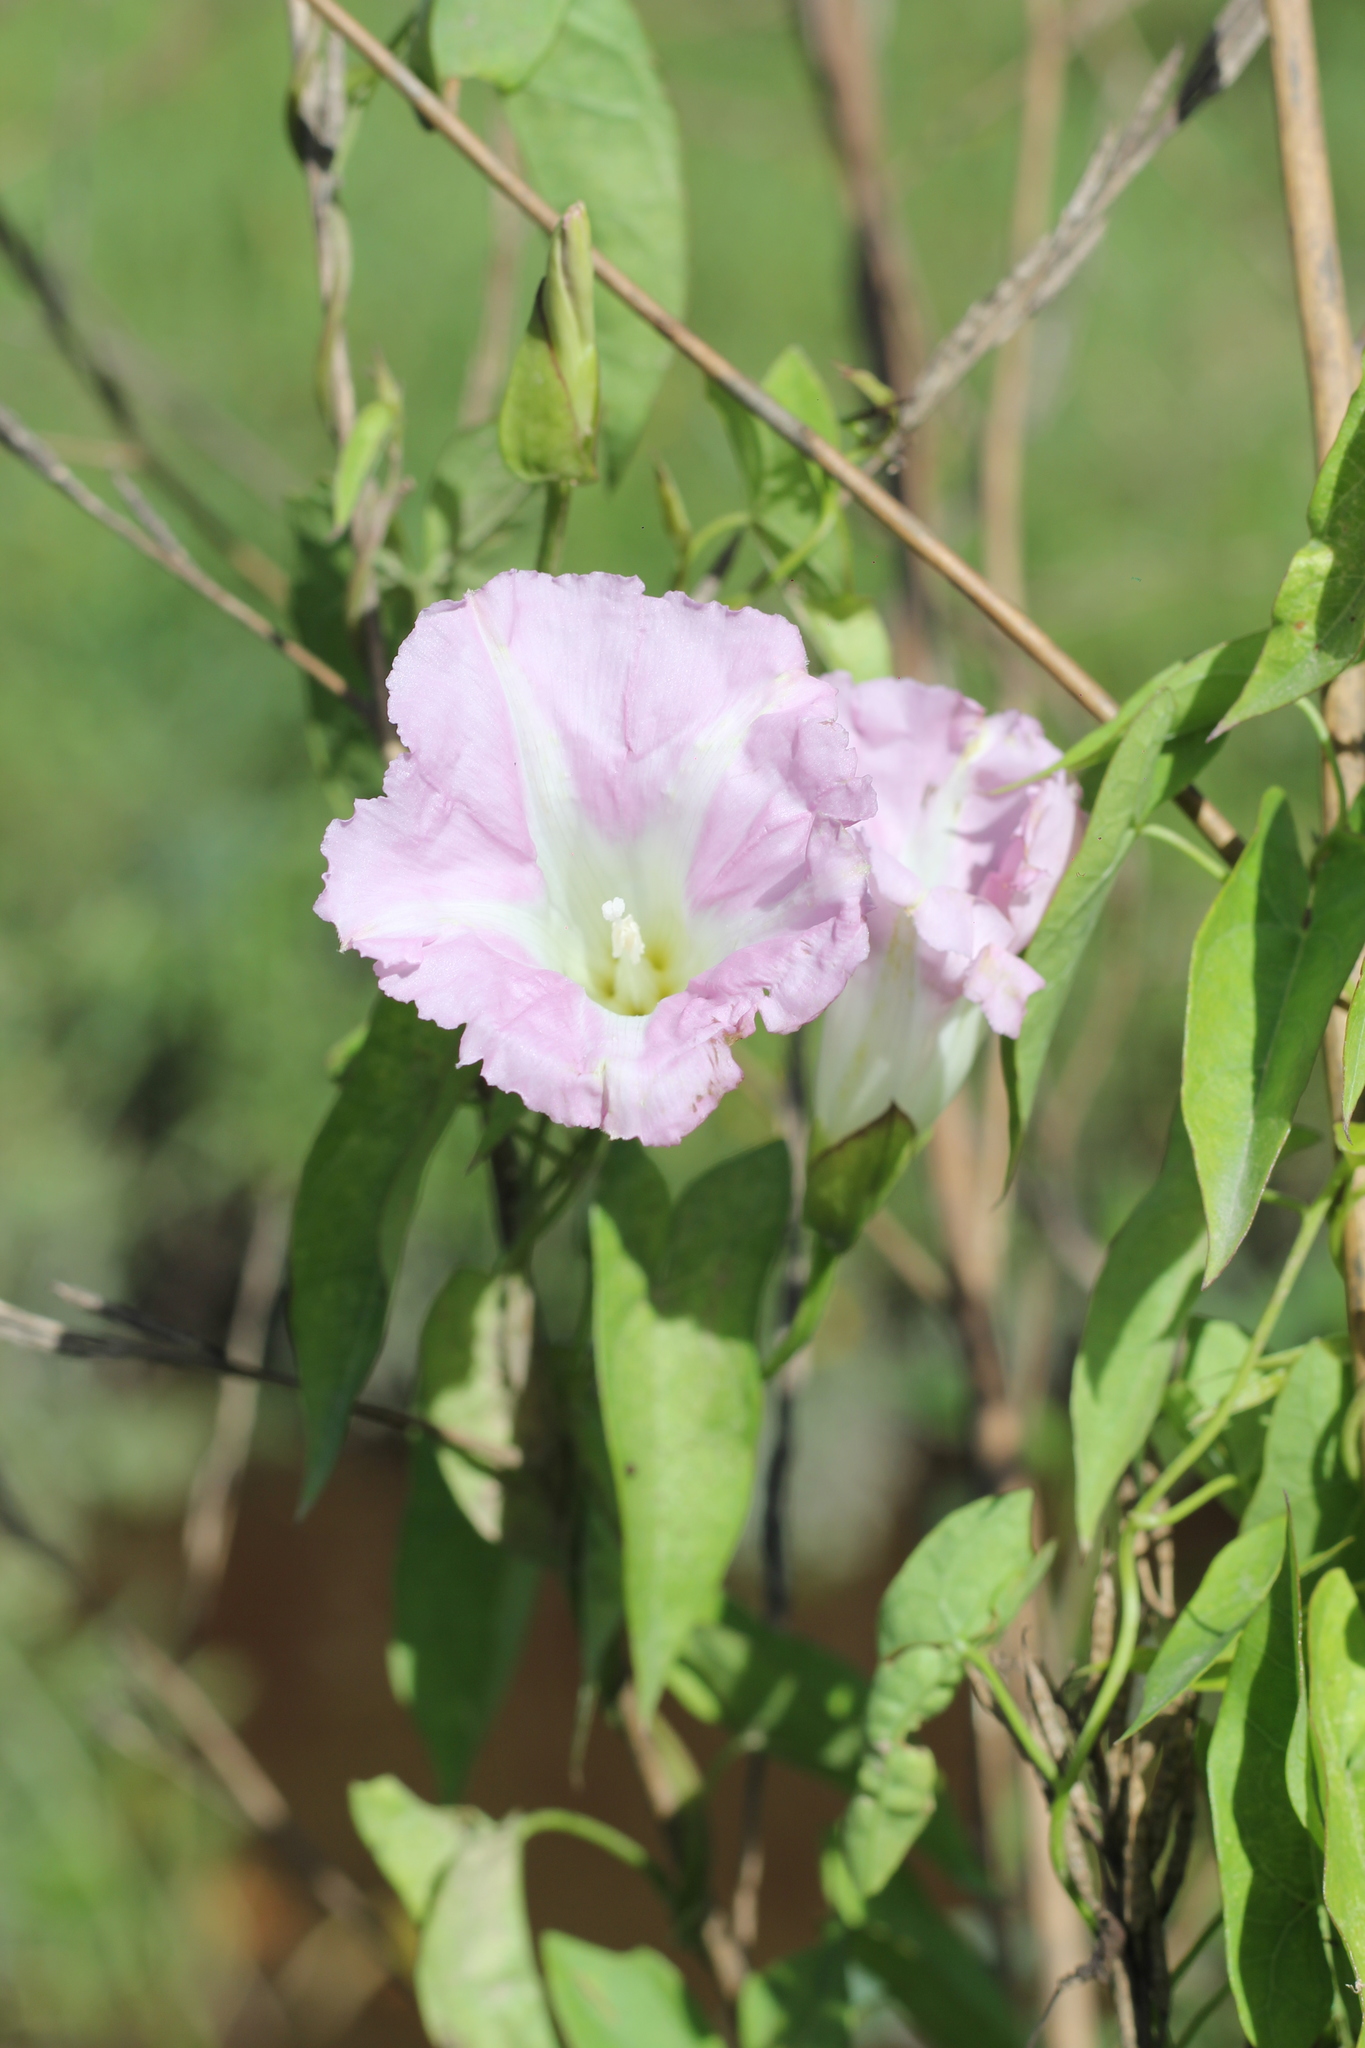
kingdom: Plantae
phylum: Tracheophyta
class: Magnoliopsida
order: Solanales
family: Convolvulaceae
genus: Calystegia
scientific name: Calystegia sepium
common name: Hedge bindweed
